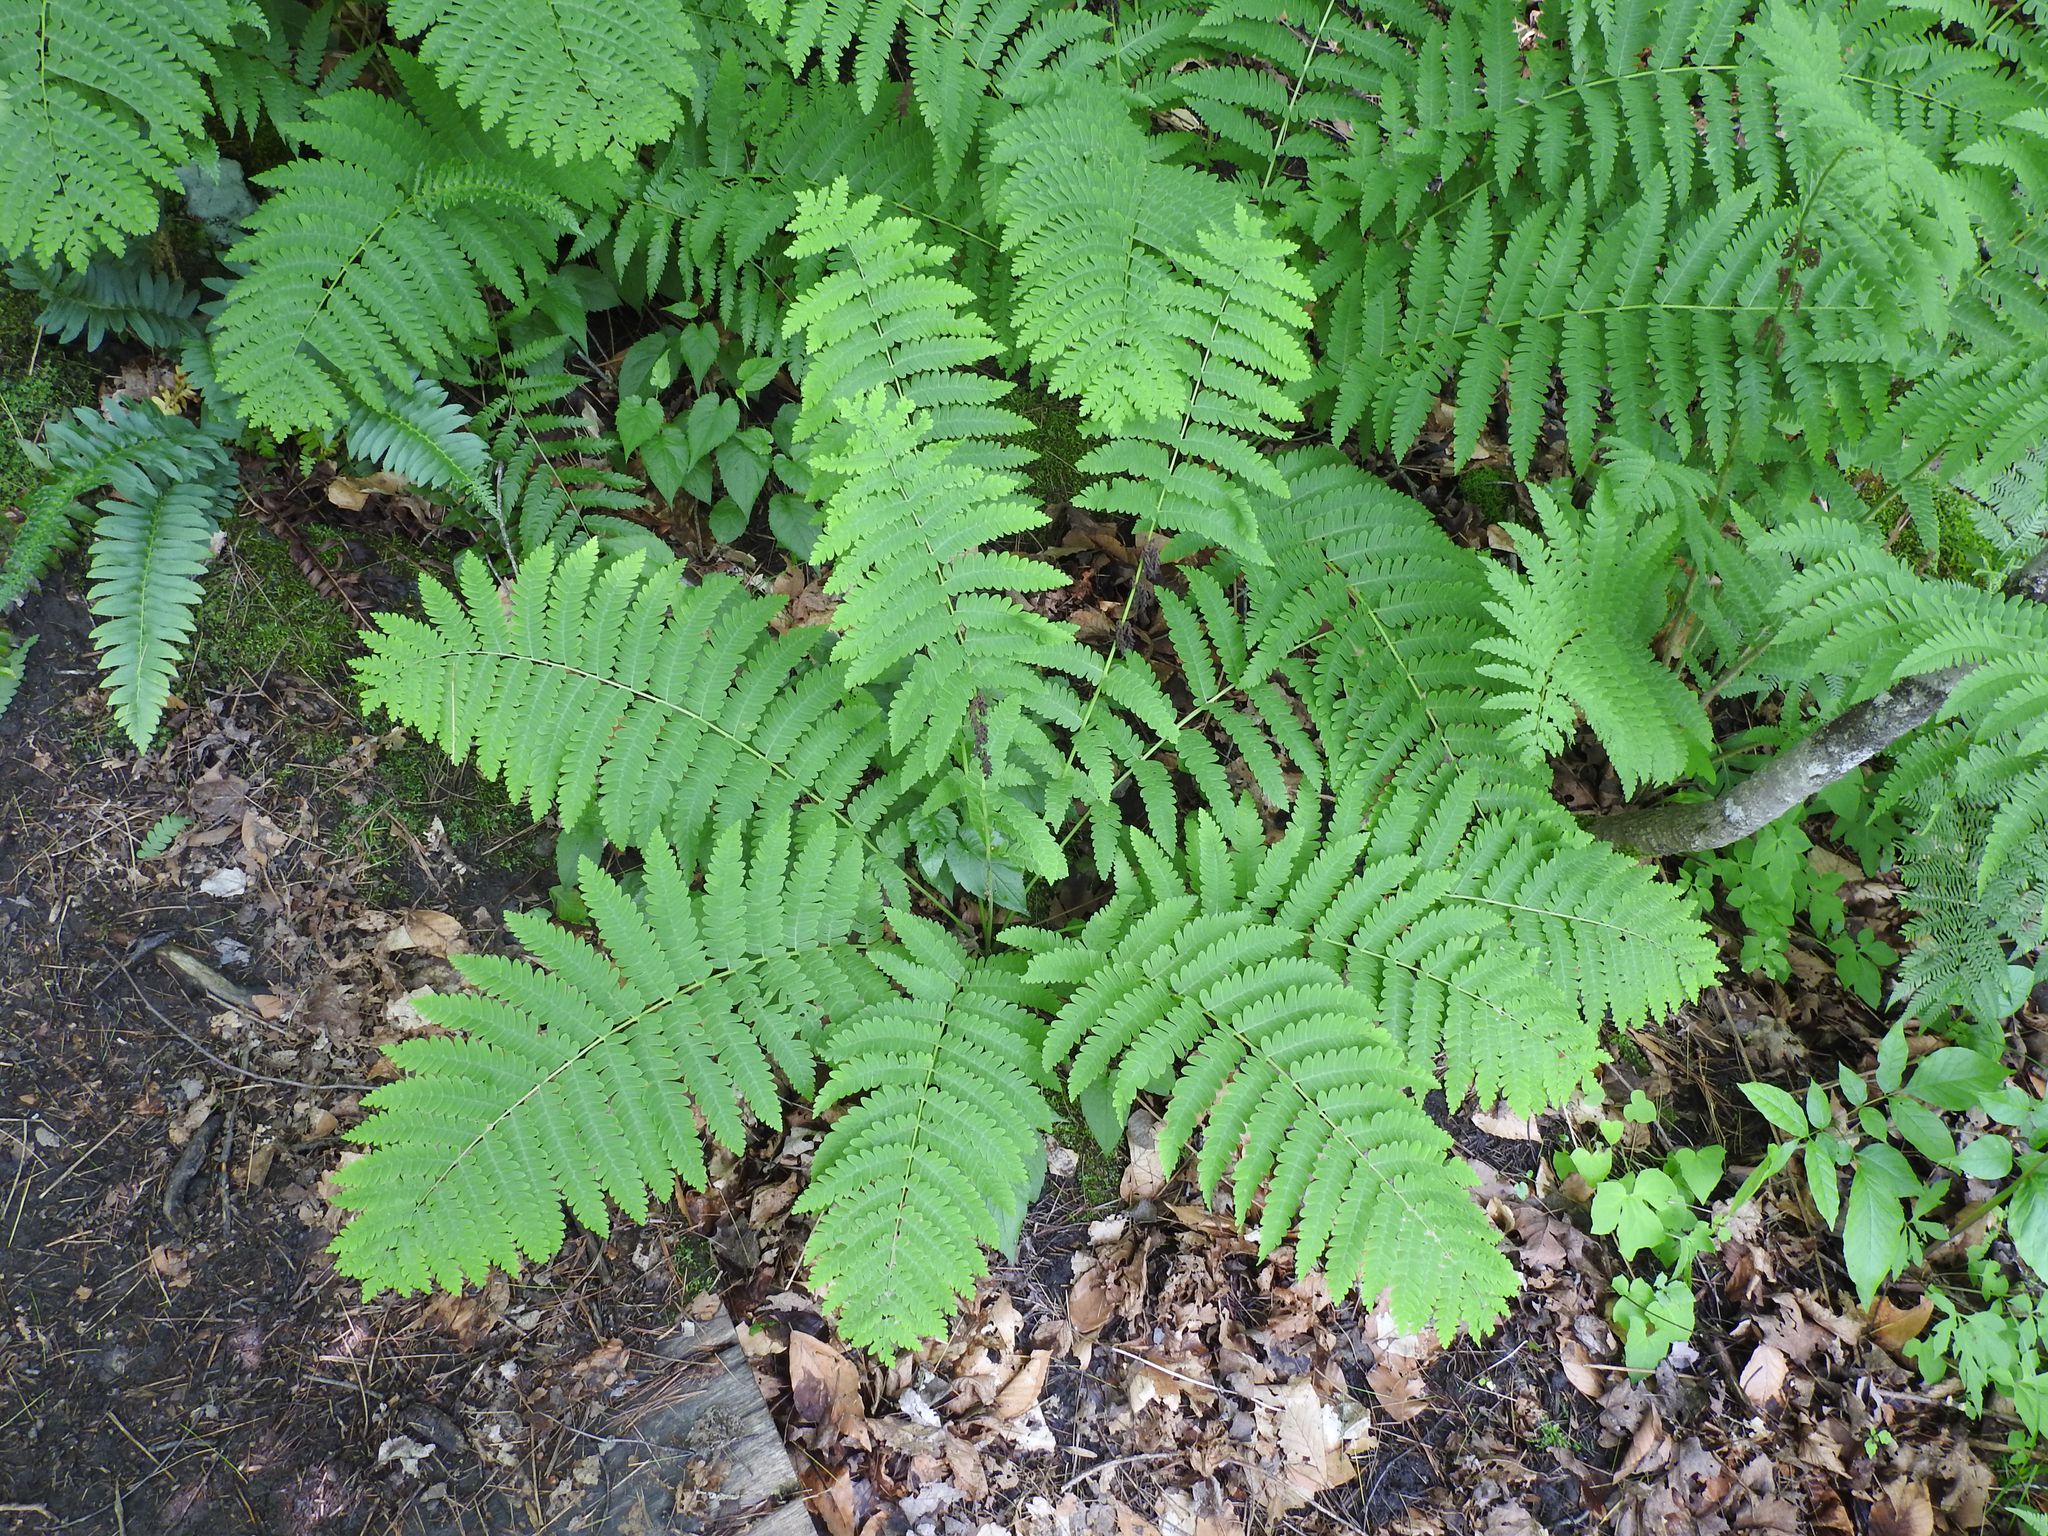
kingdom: Plantae
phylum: Tracheophyta
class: Polypodiopsida
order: Osmundales
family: Osmundaceae
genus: Claytosmunda
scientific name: Claytosmunda claytoniana
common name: Clayton's fern
